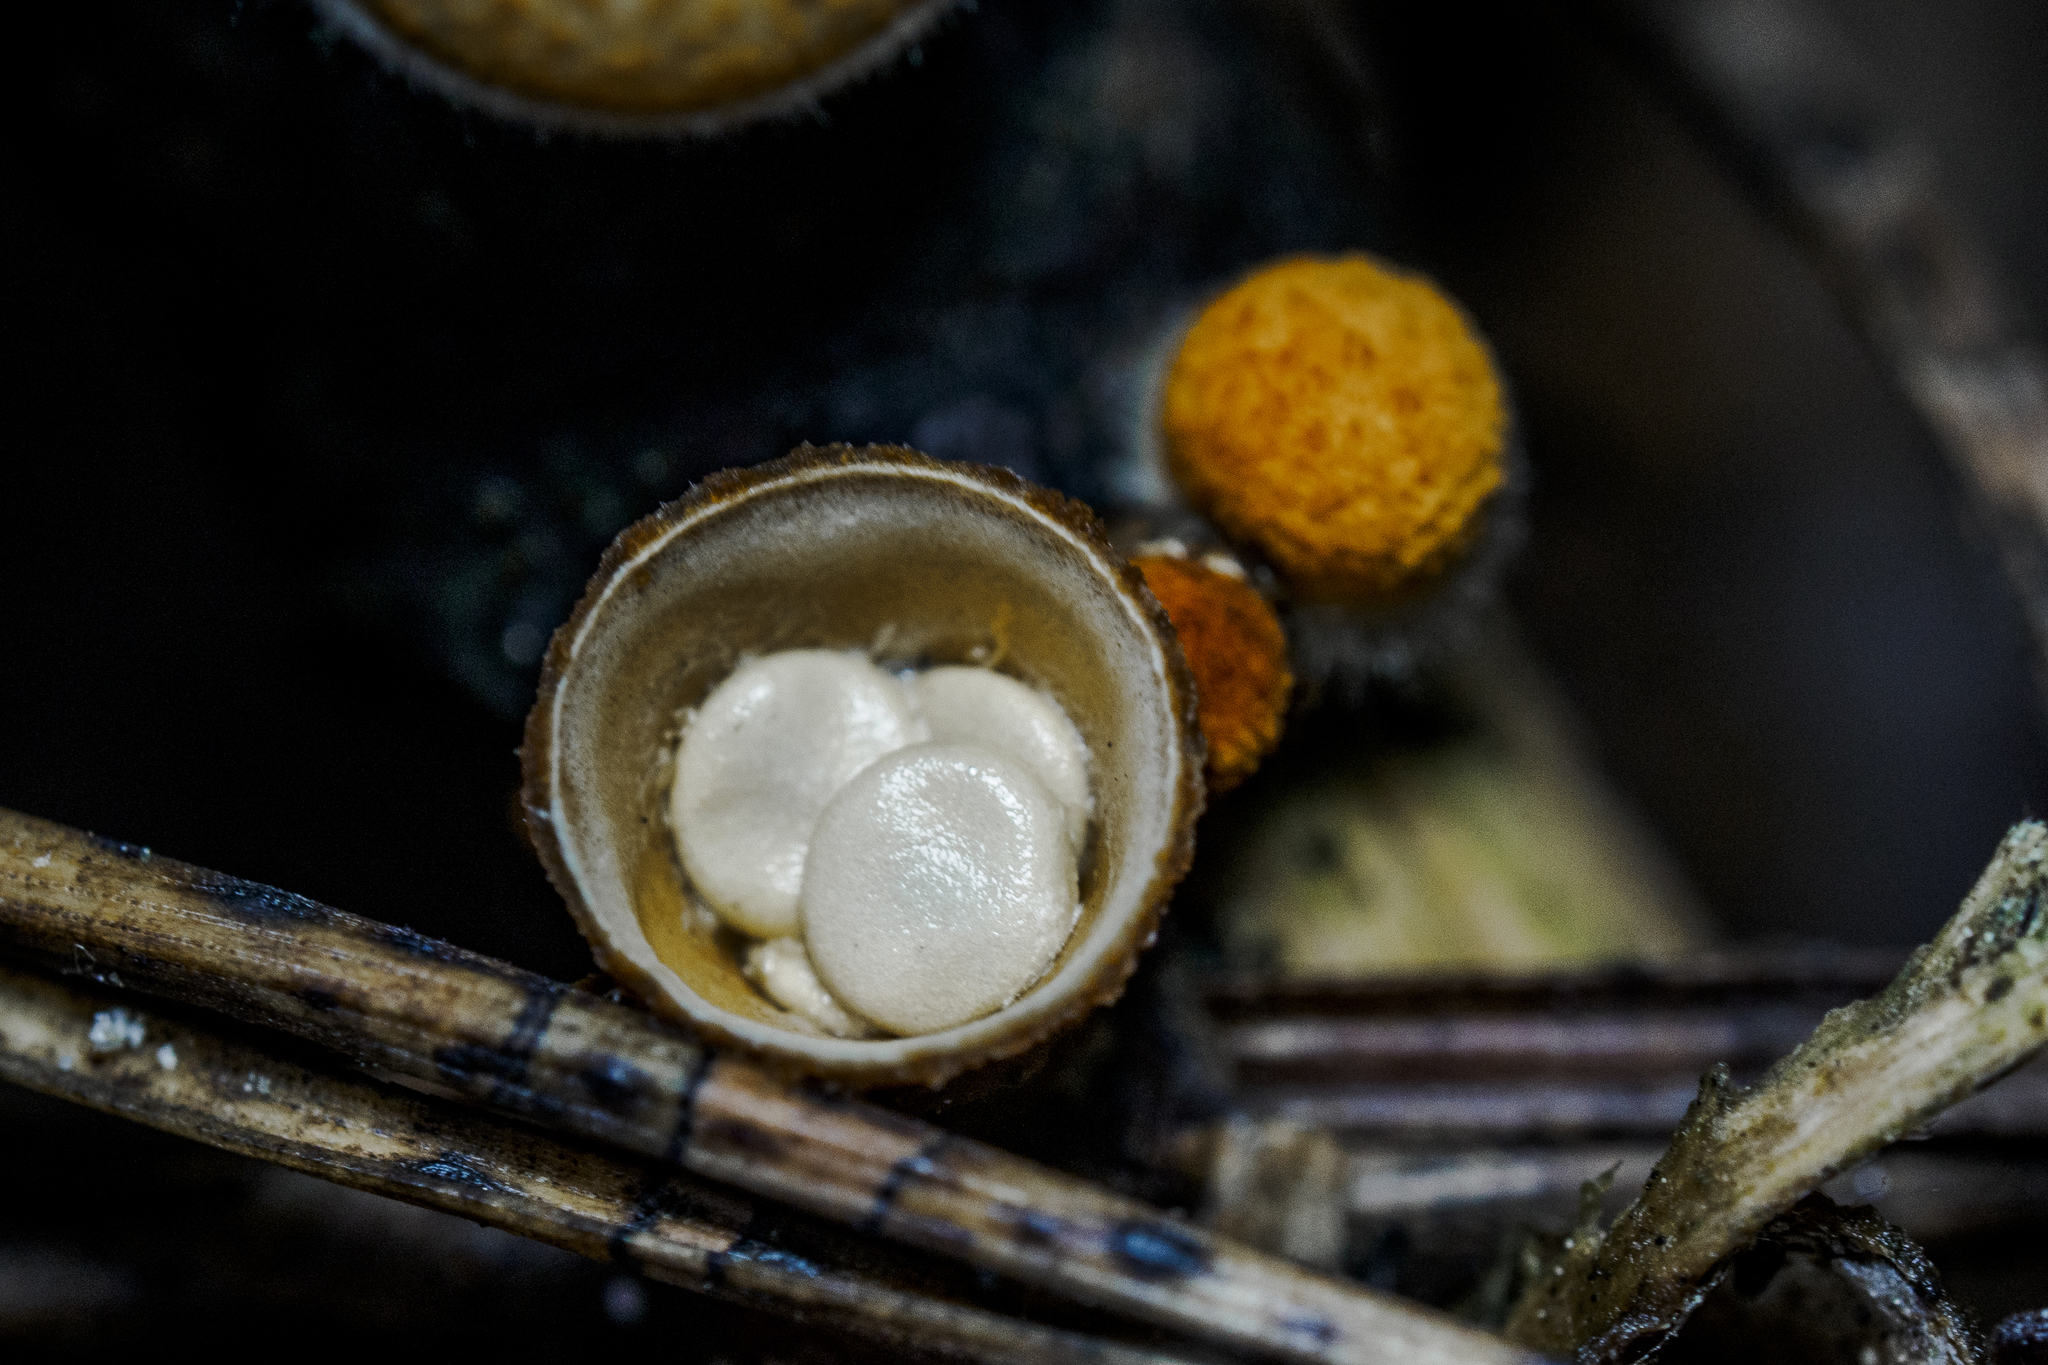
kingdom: Fungi
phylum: Basidiomycota
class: Agaricomycetes
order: Agaricales
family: Nidulariaceae
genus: Crucibulum
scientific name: Crucibulum laeve
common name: Common bird's nest
